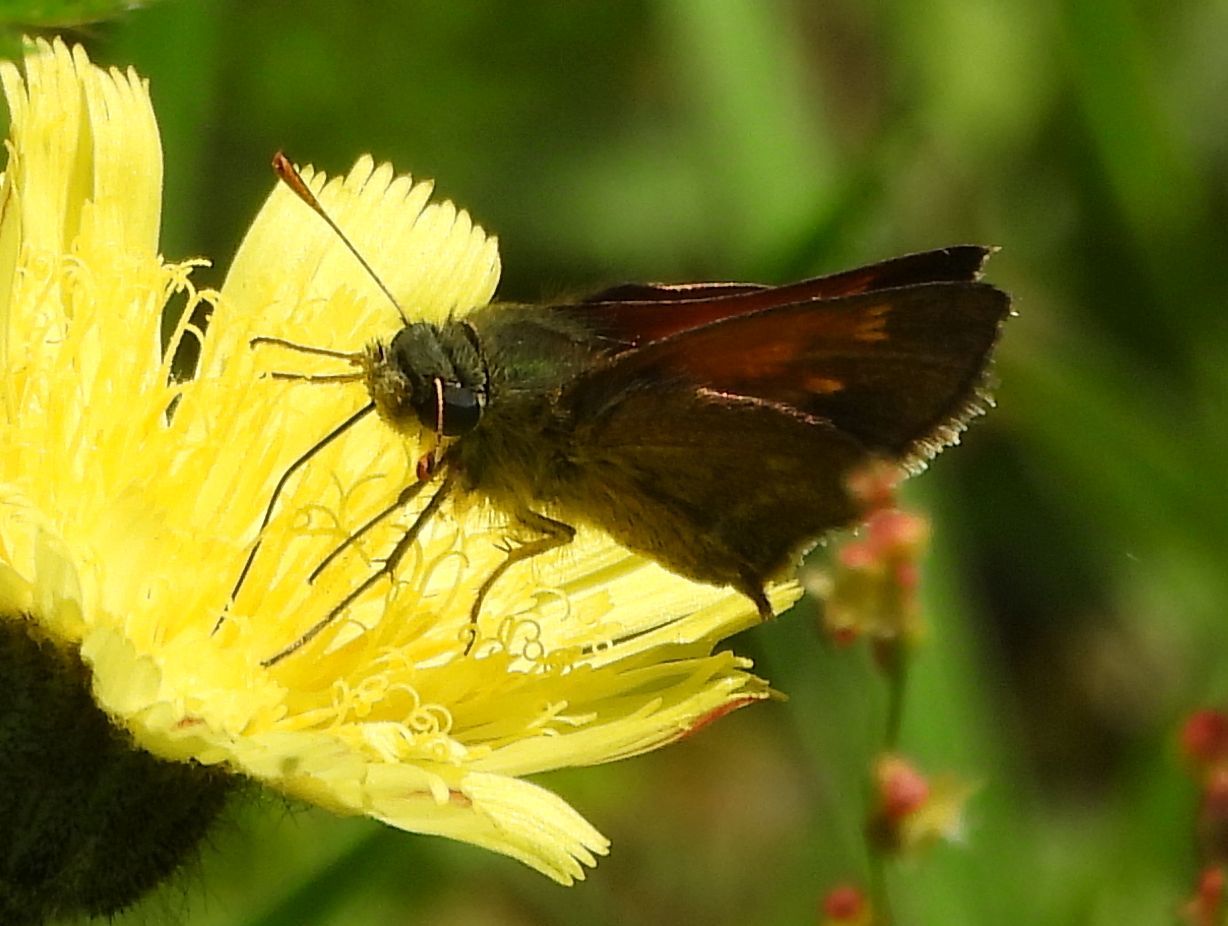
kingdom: Animalia
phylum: Arthropoda
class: Insecta
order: Lepidoptera
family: Hesperiidae
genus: Polites
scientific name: Polites themistocles
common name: Tawny-edged skipper
